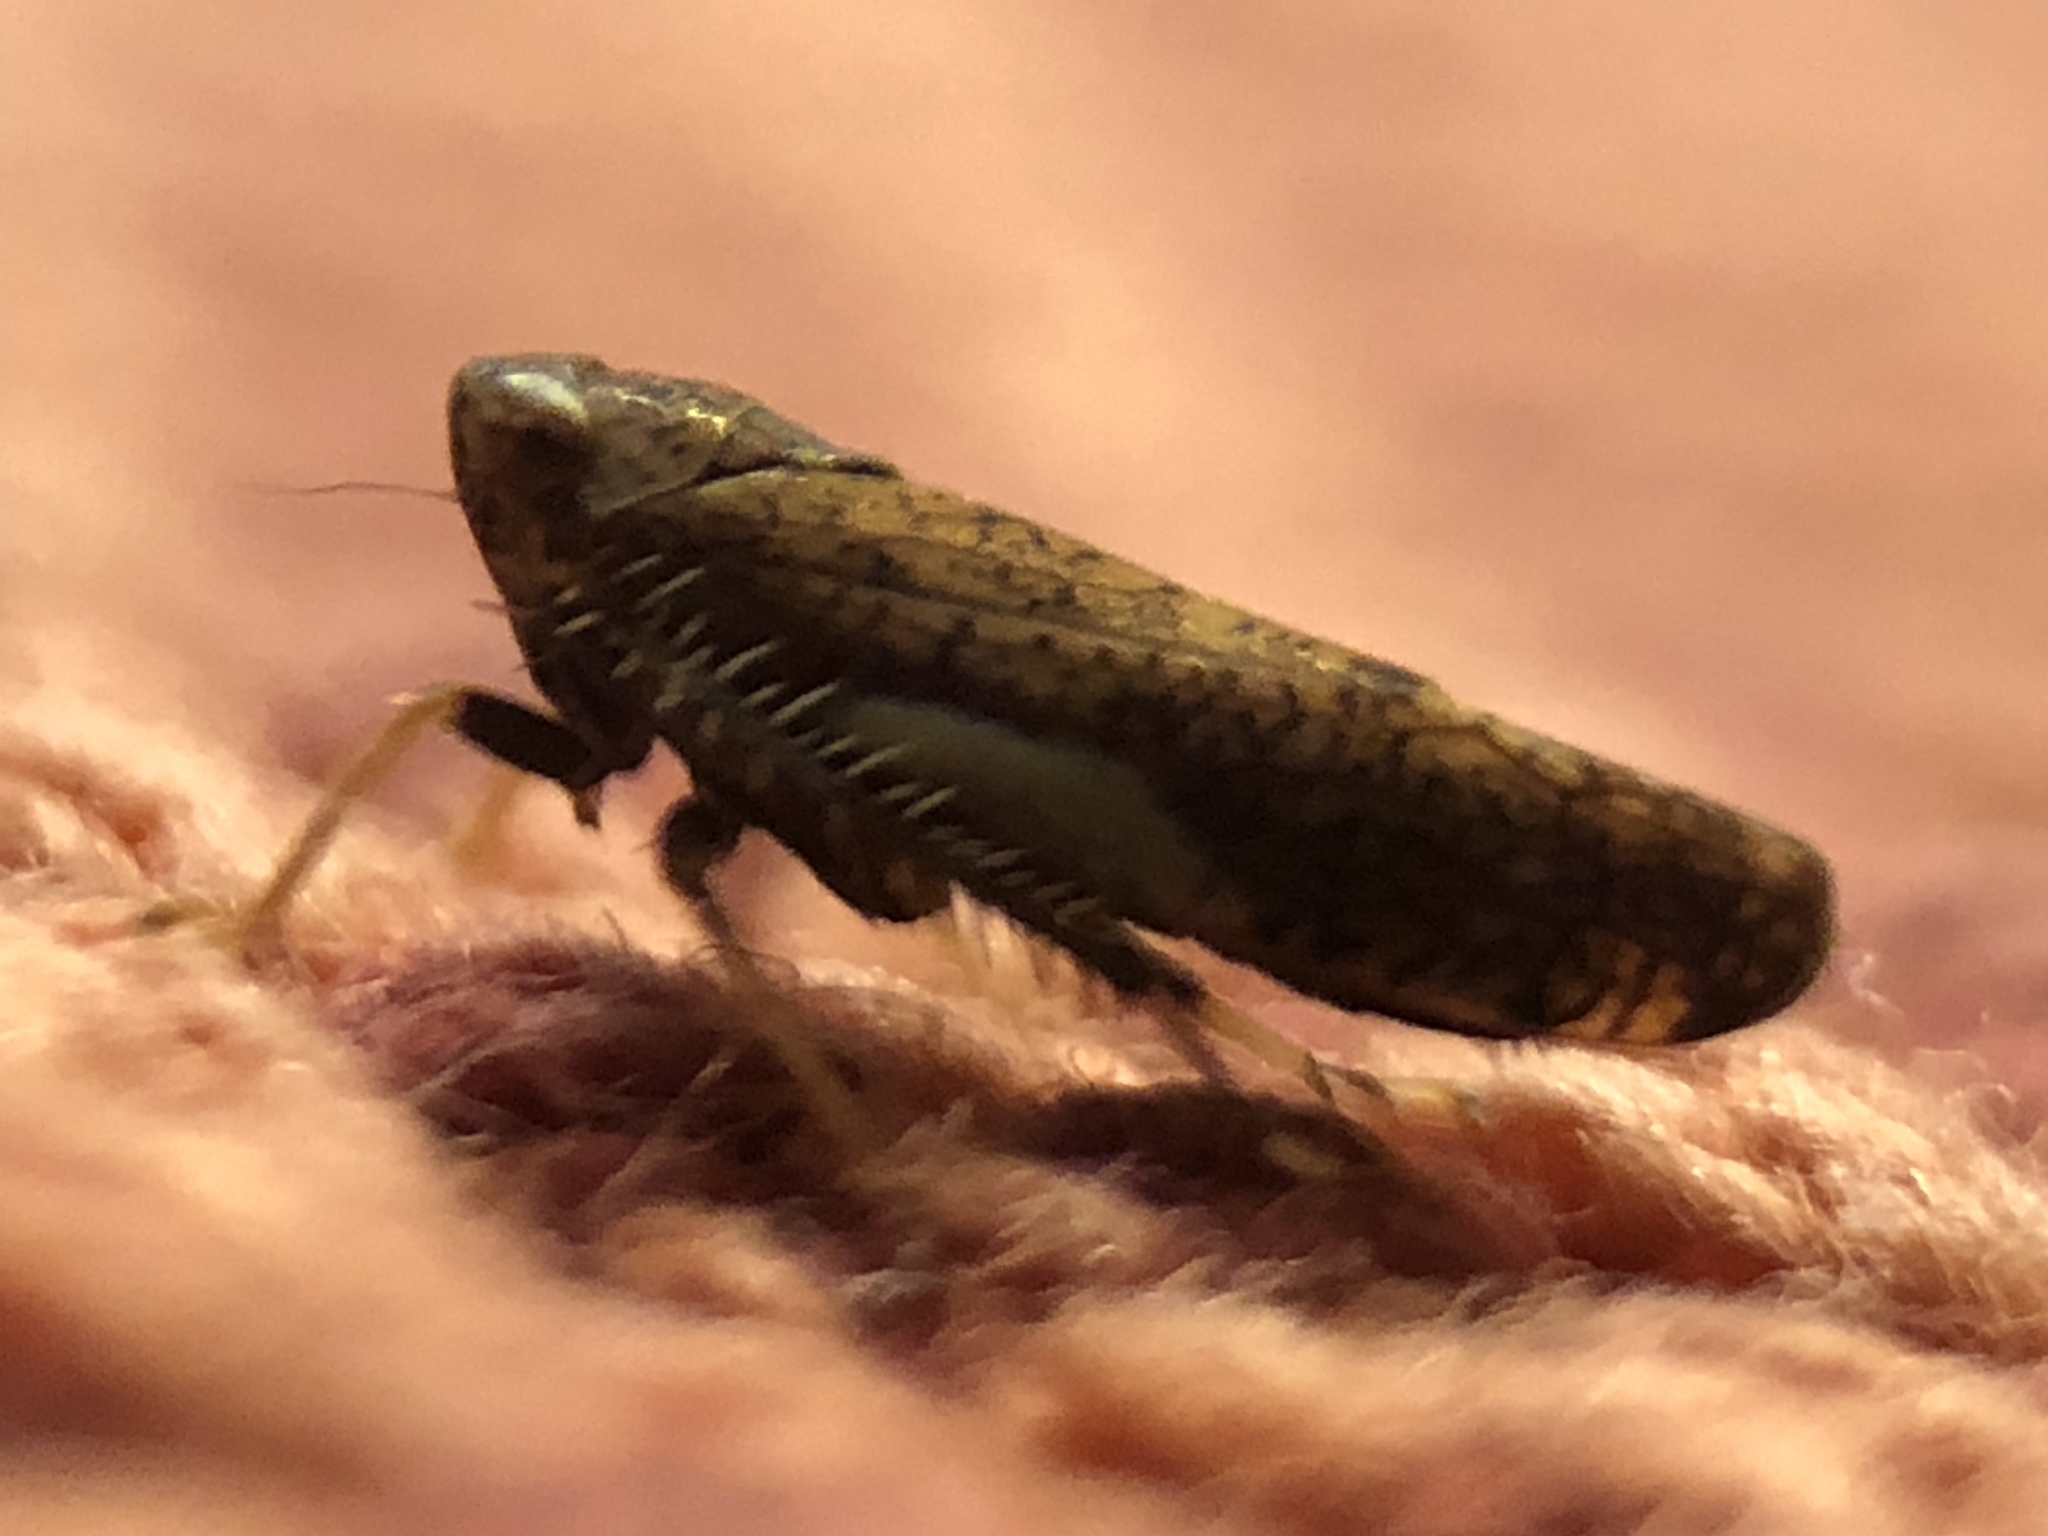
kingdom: Animalia
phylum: Arthropoda
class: Insecta
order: Hemiptera
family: Cicadellidae
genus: Orientus
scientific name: Orientus ishidae
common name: Japanese leafhopper
